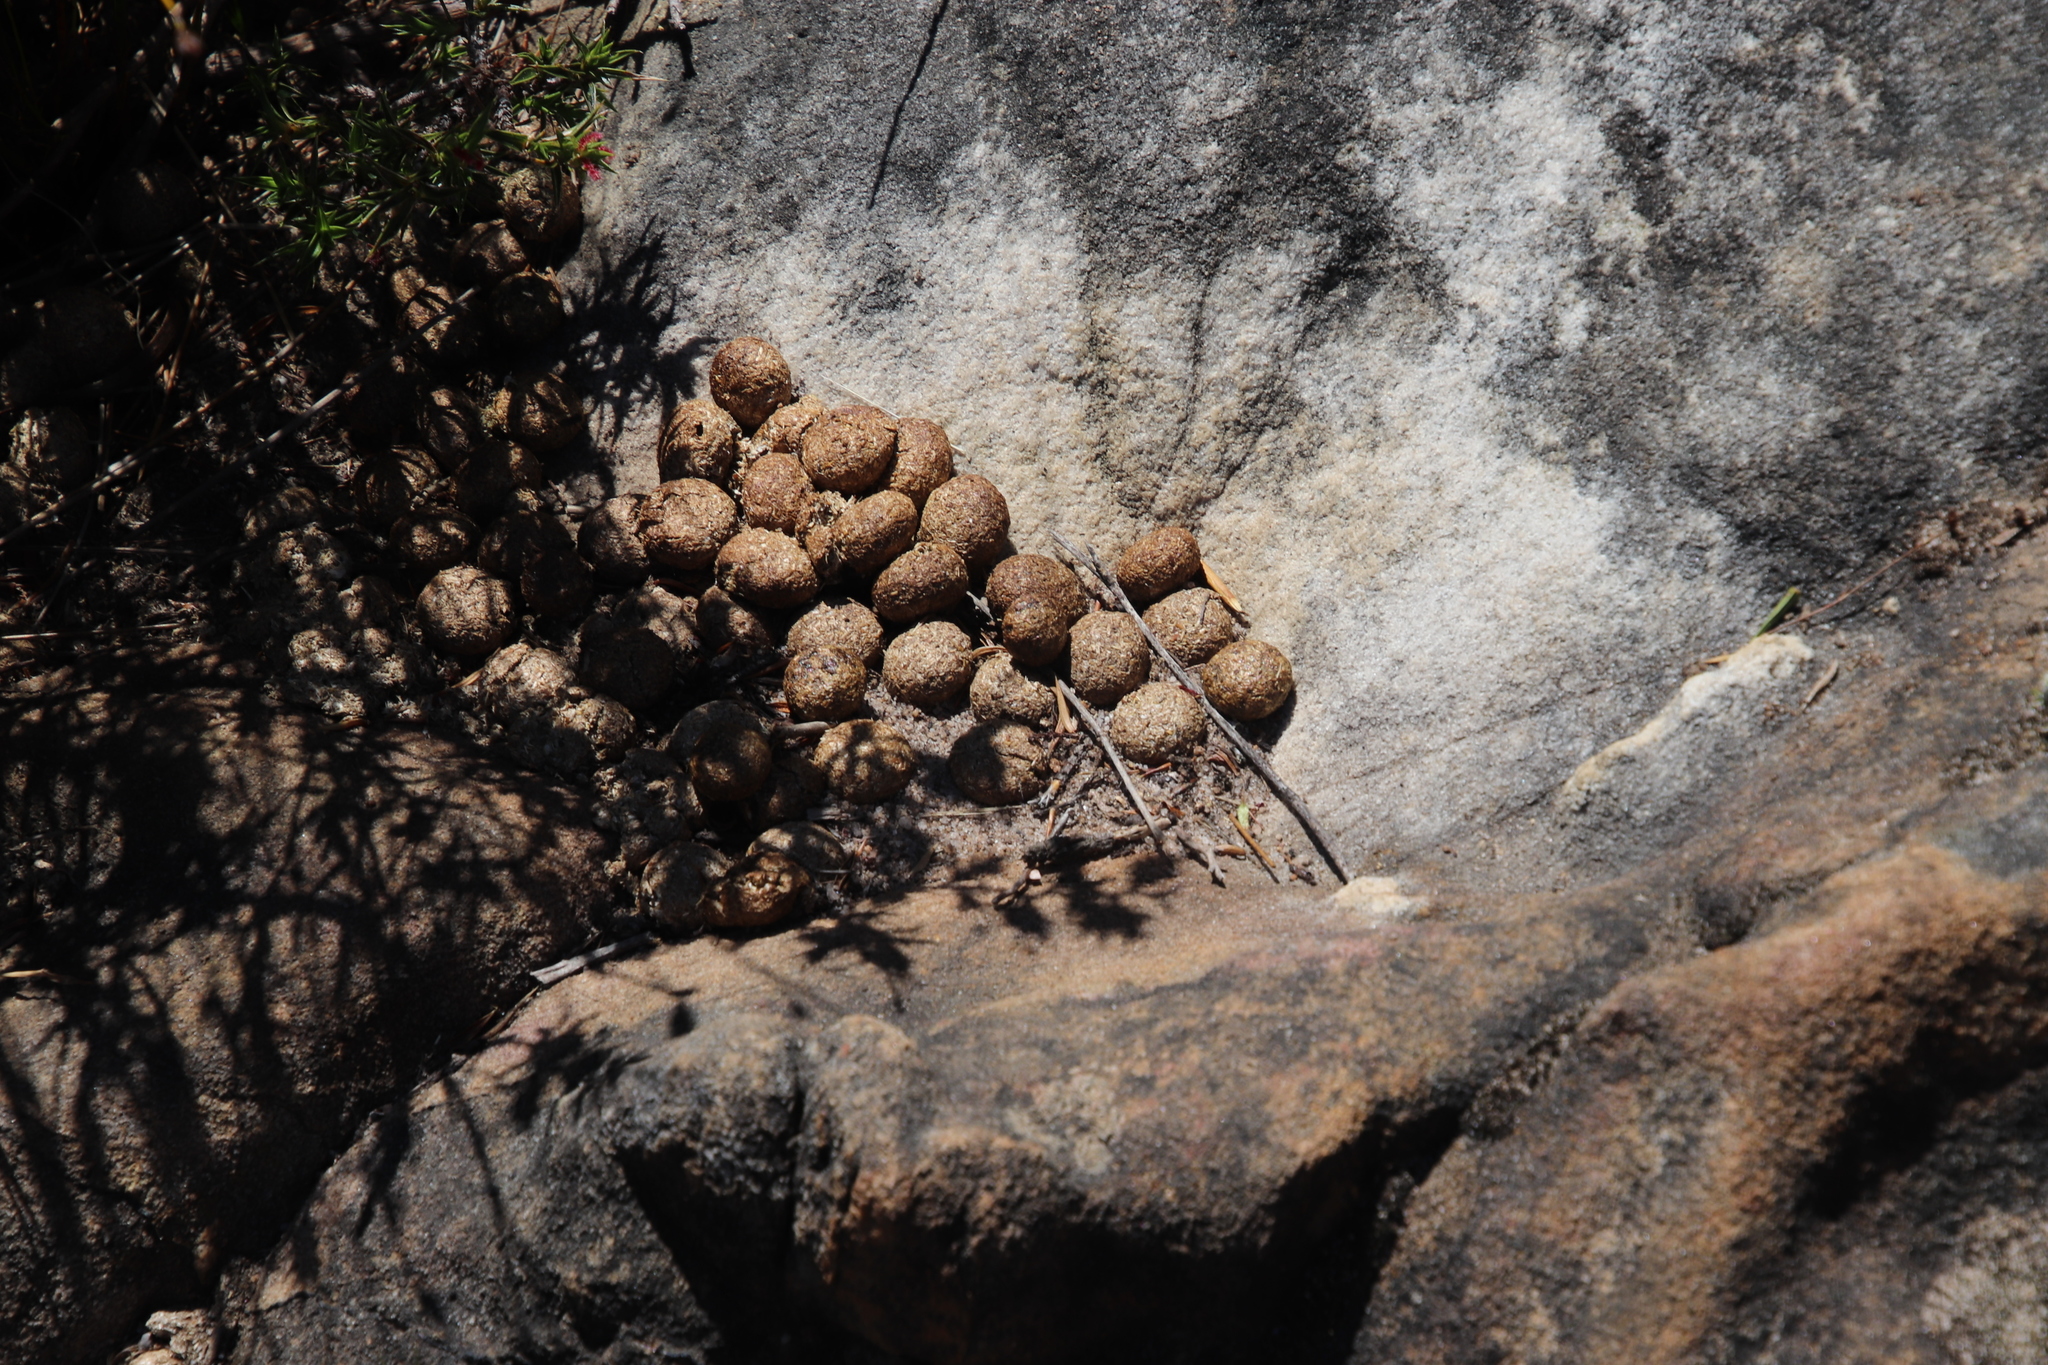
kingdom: Animalia
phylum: Chordata
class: Mammalia
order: Lagomorpha
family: Leporidae
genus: Pronolagus
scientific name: Pronolagus saundersiae
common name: Hewitt's red rock hare
